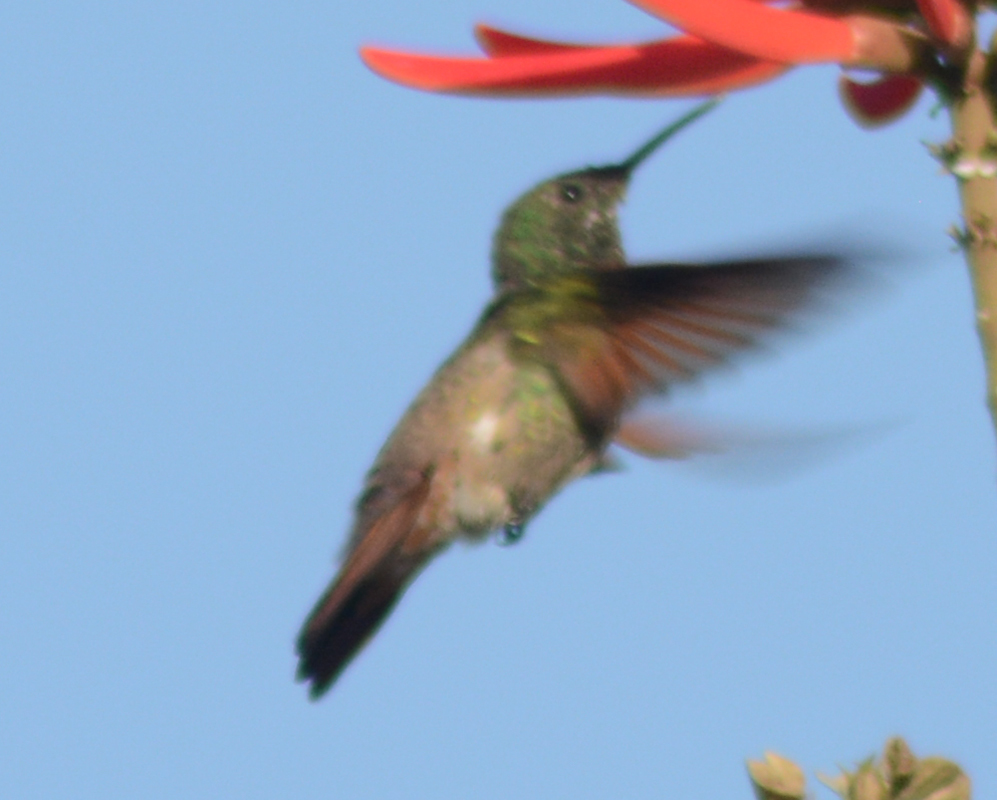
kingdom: Animalia
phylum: Chordata
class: Aves
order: Apodiformes
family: Trochilidae
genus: Saucerottia
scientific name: Saucerottia beryllina
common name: Berylline hummingbird
